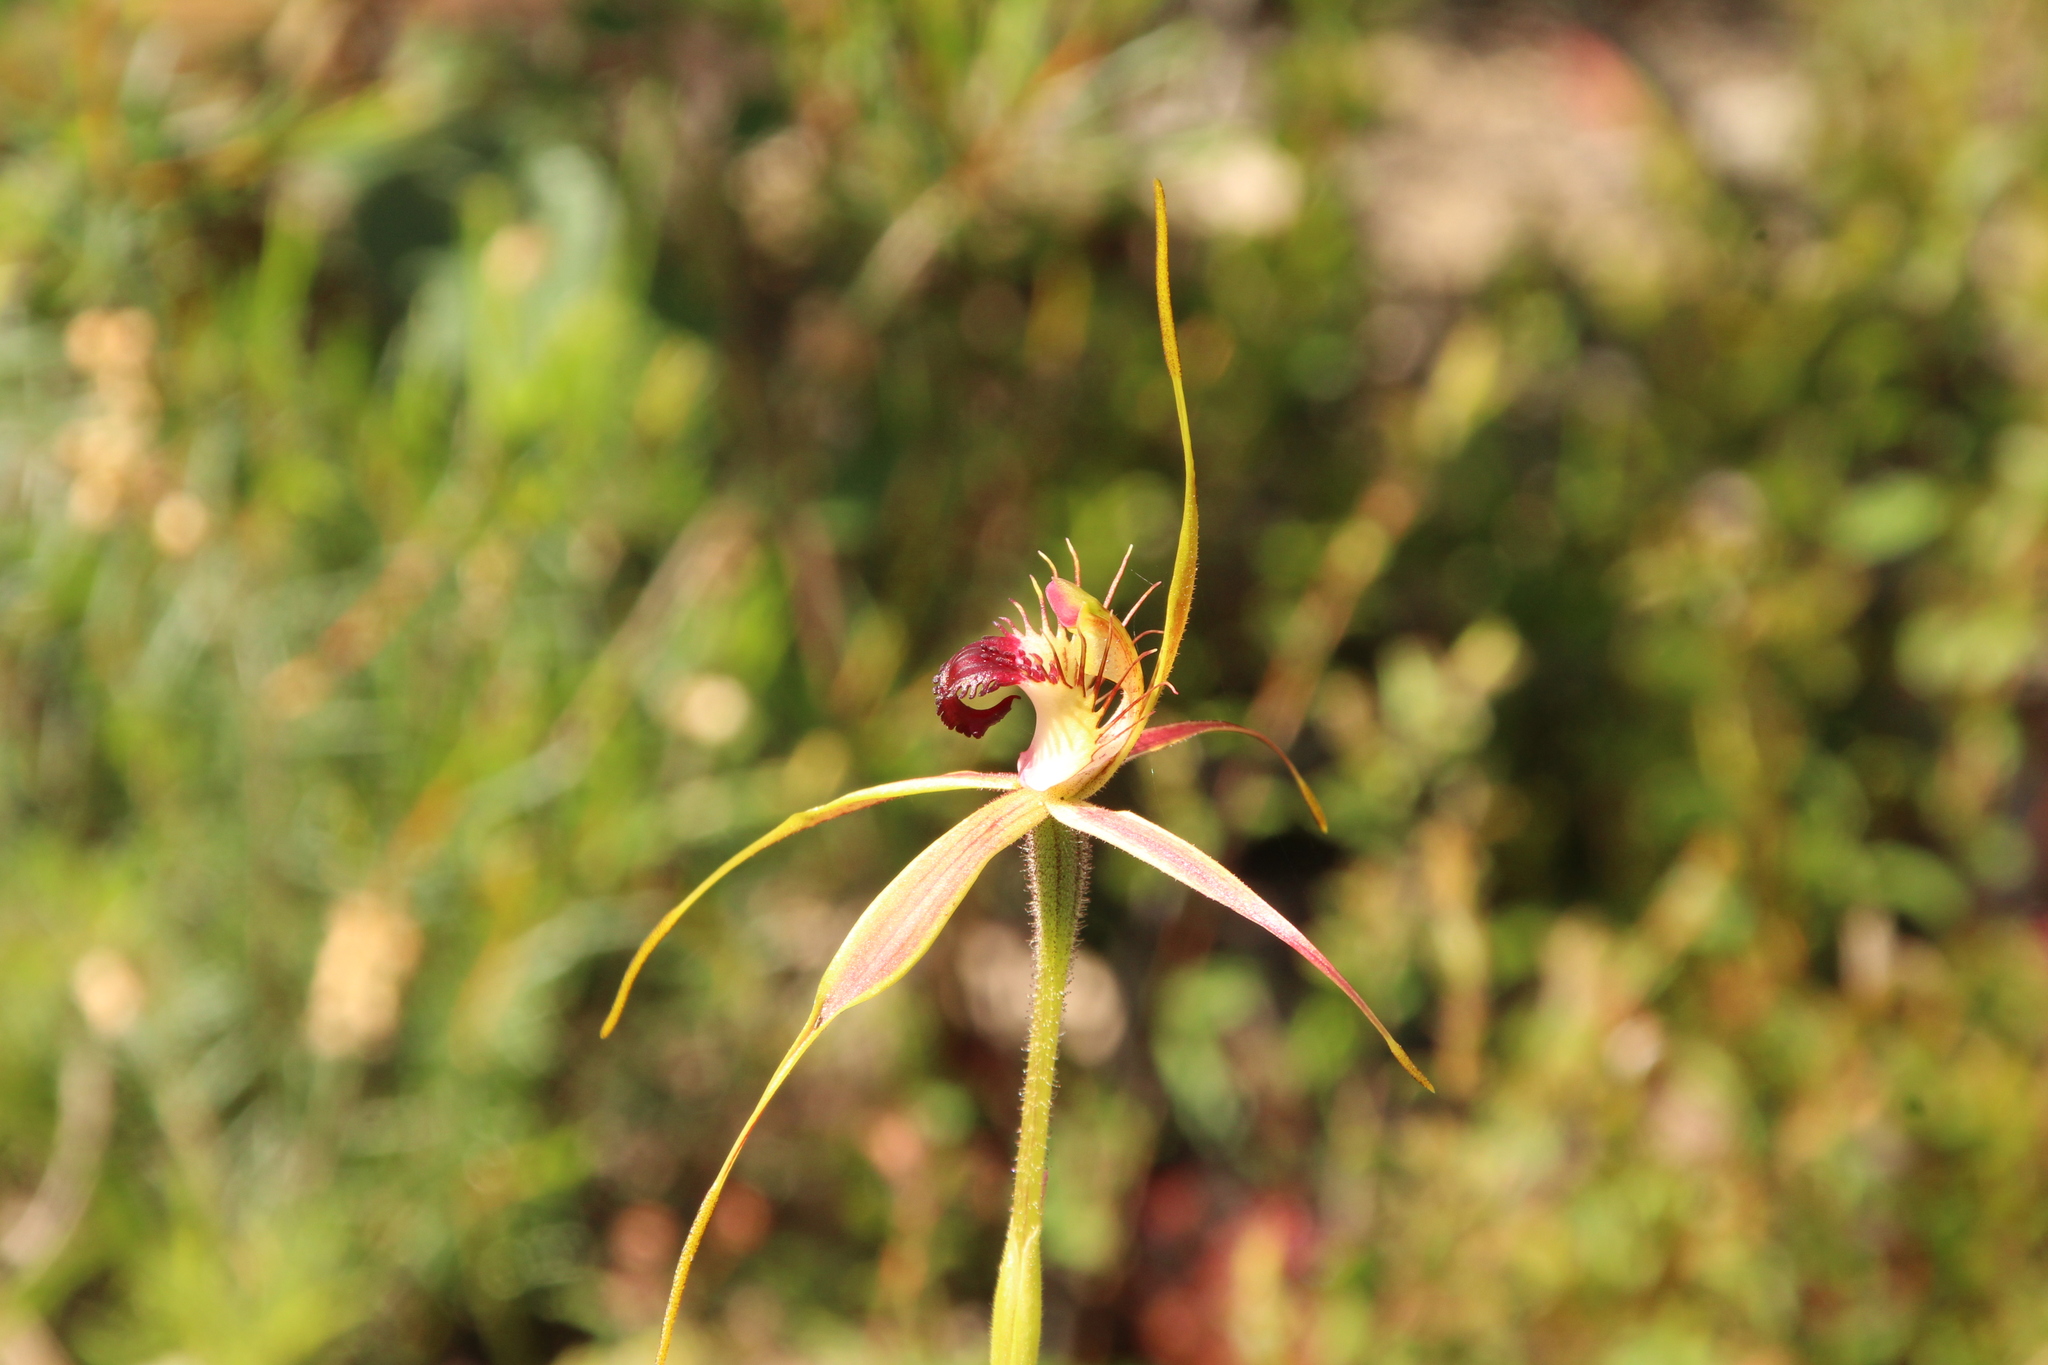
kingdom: Plantae
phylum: Tracheophyta
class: Liliopsida
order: Asparagales
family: Orchidaceae
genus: Caladenia
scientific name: Caladenia brownii
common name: Kari spider orchid
